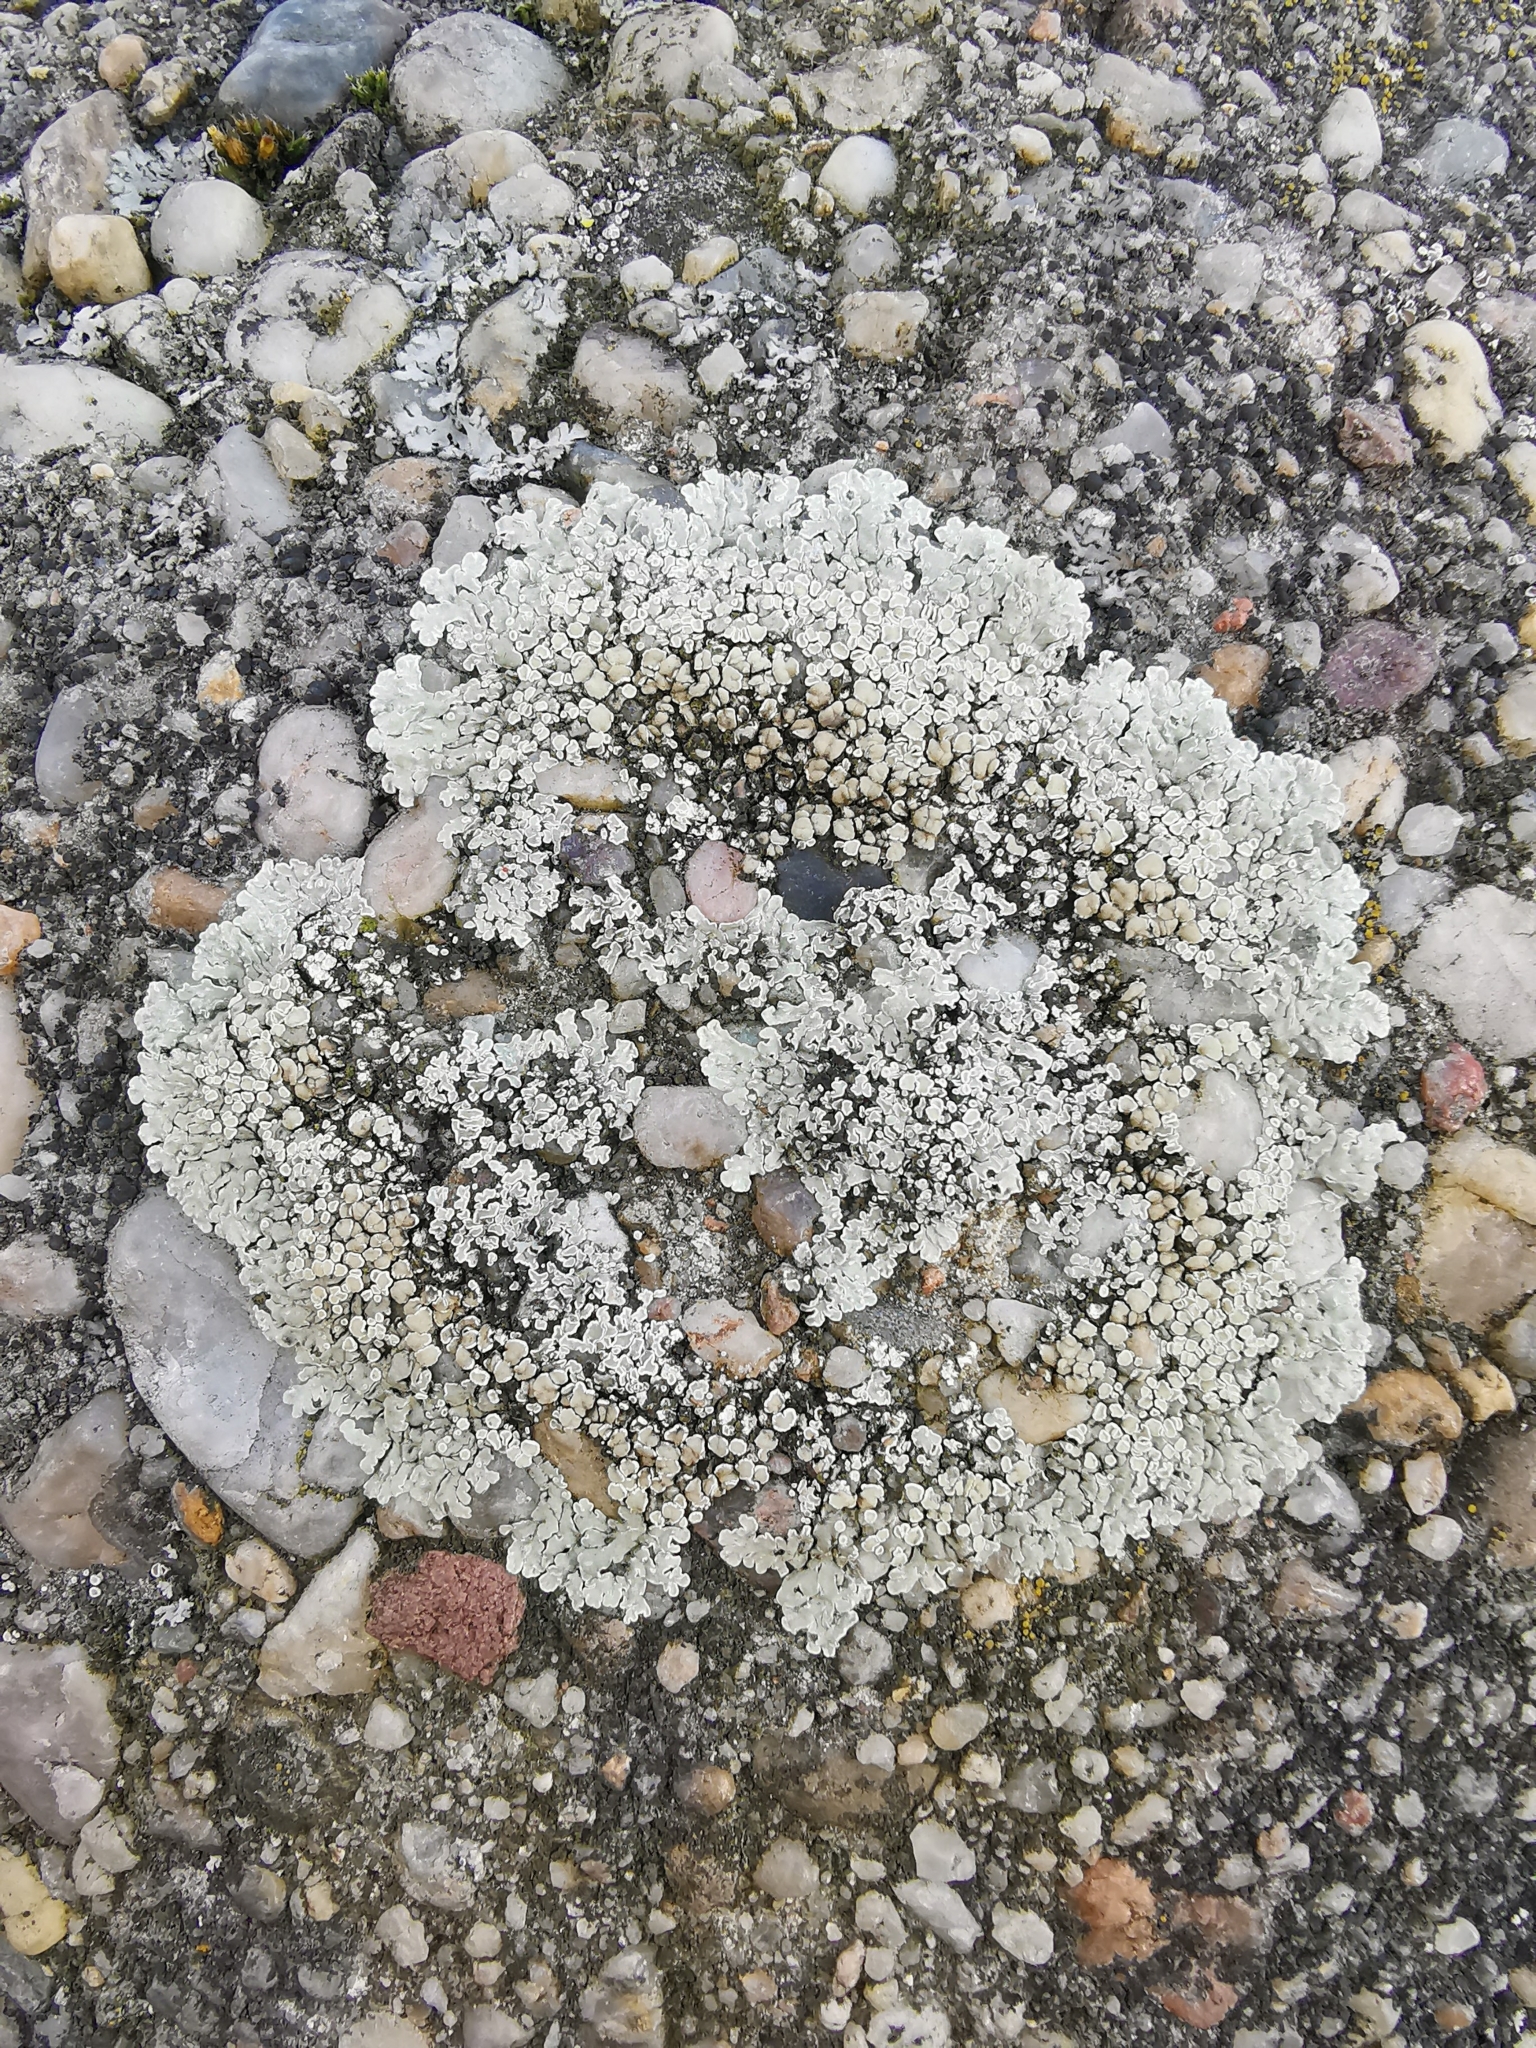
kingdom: Fungi
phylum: Ascomycota
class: Lecanoromycetes
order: Lecanorales
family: Lecanoraceae
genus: Protoparmeliopsis
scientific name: Protoparmeliopsis muralis
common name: Stonewall rim lichen
